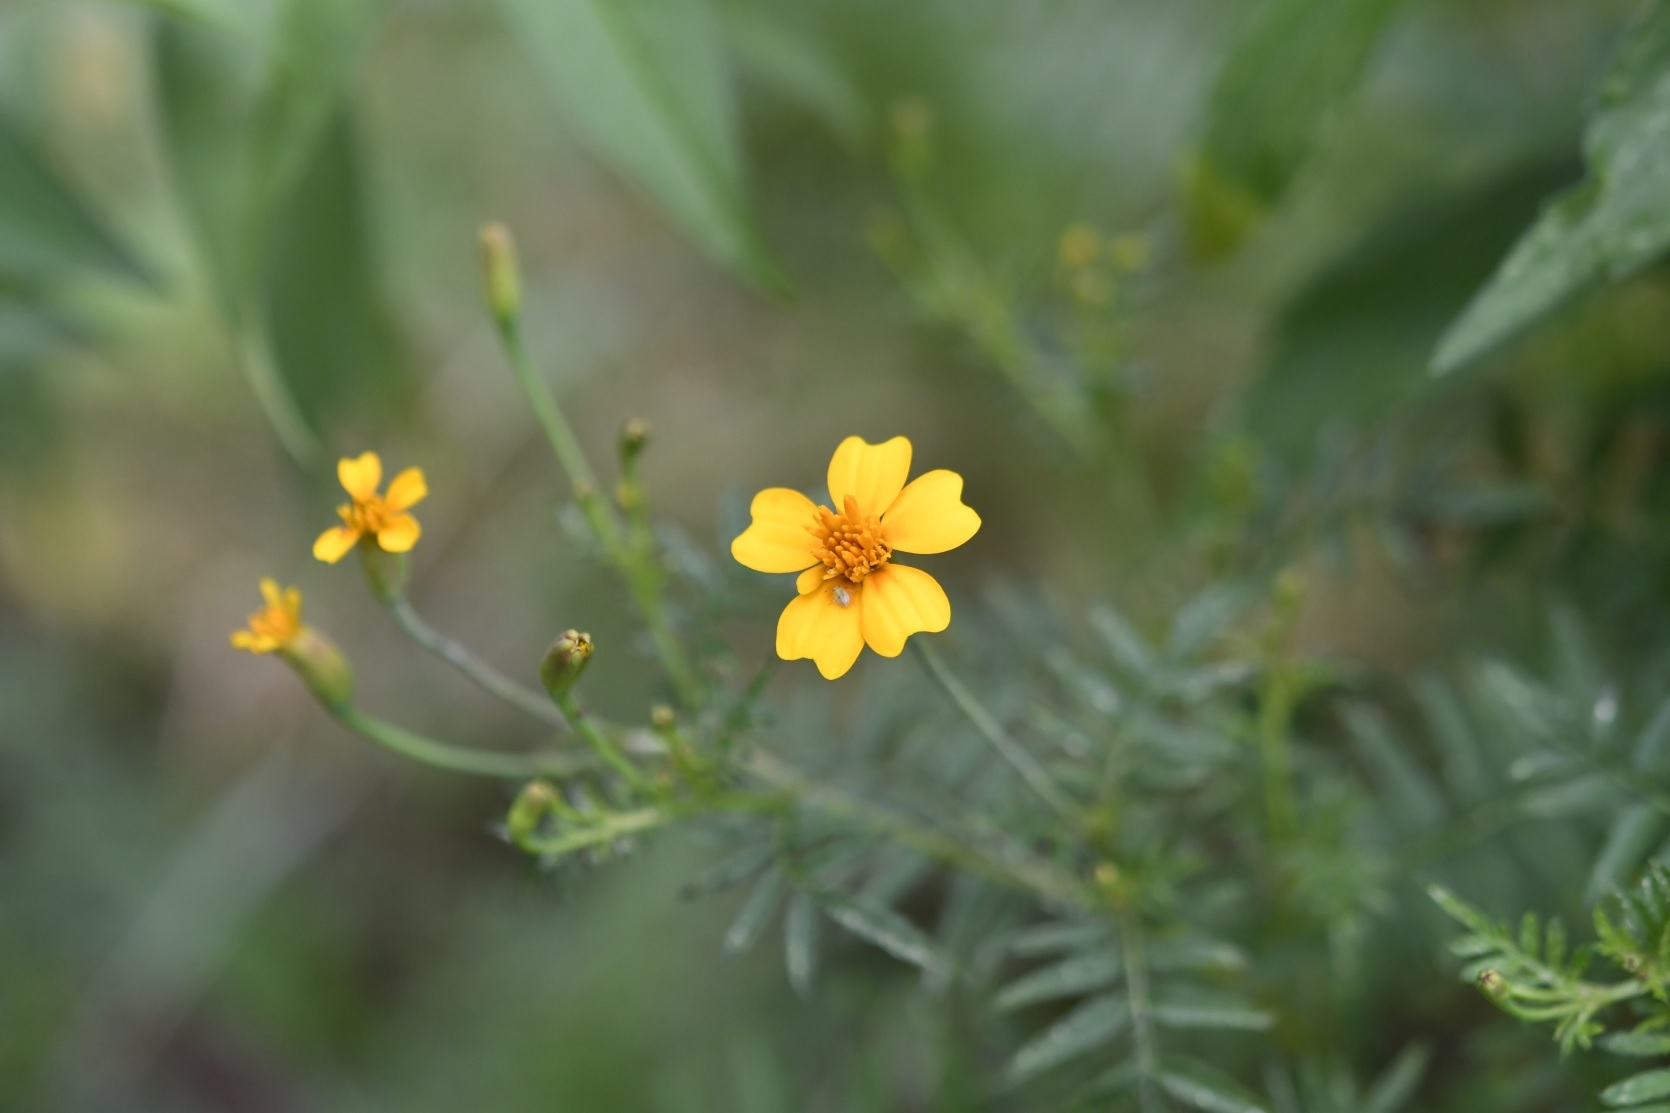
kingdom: Plantae
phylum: Tracheophyta
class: Magnoliopsida
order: Asterales
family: Asteraceae
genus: Tagetes
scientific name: Tagetes tenuifolia
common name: Signet marigold
